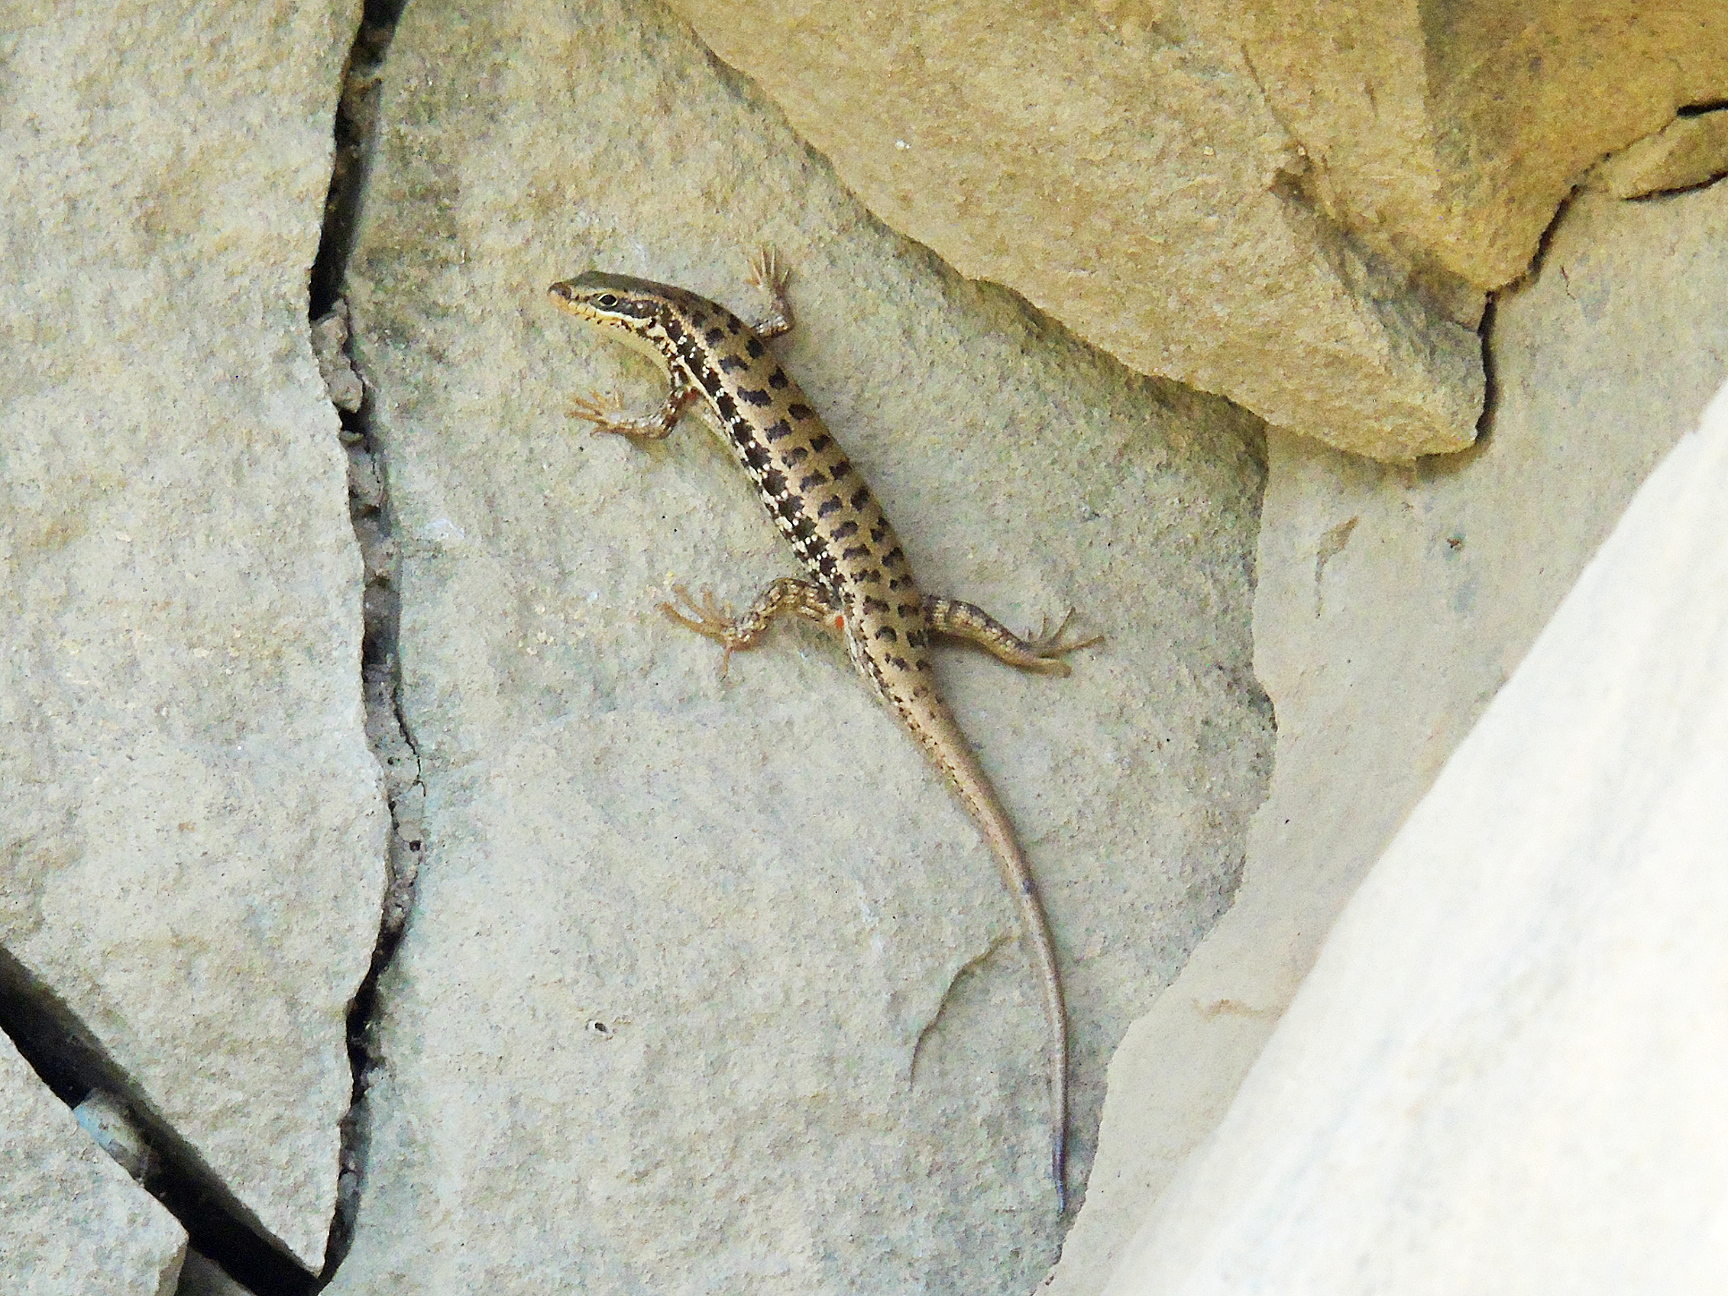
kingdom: Animalia
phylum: Chordata
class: Squamata
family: Scincidae
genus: Heremites
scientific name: Heremites auratus
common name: Golden grass mabuya
